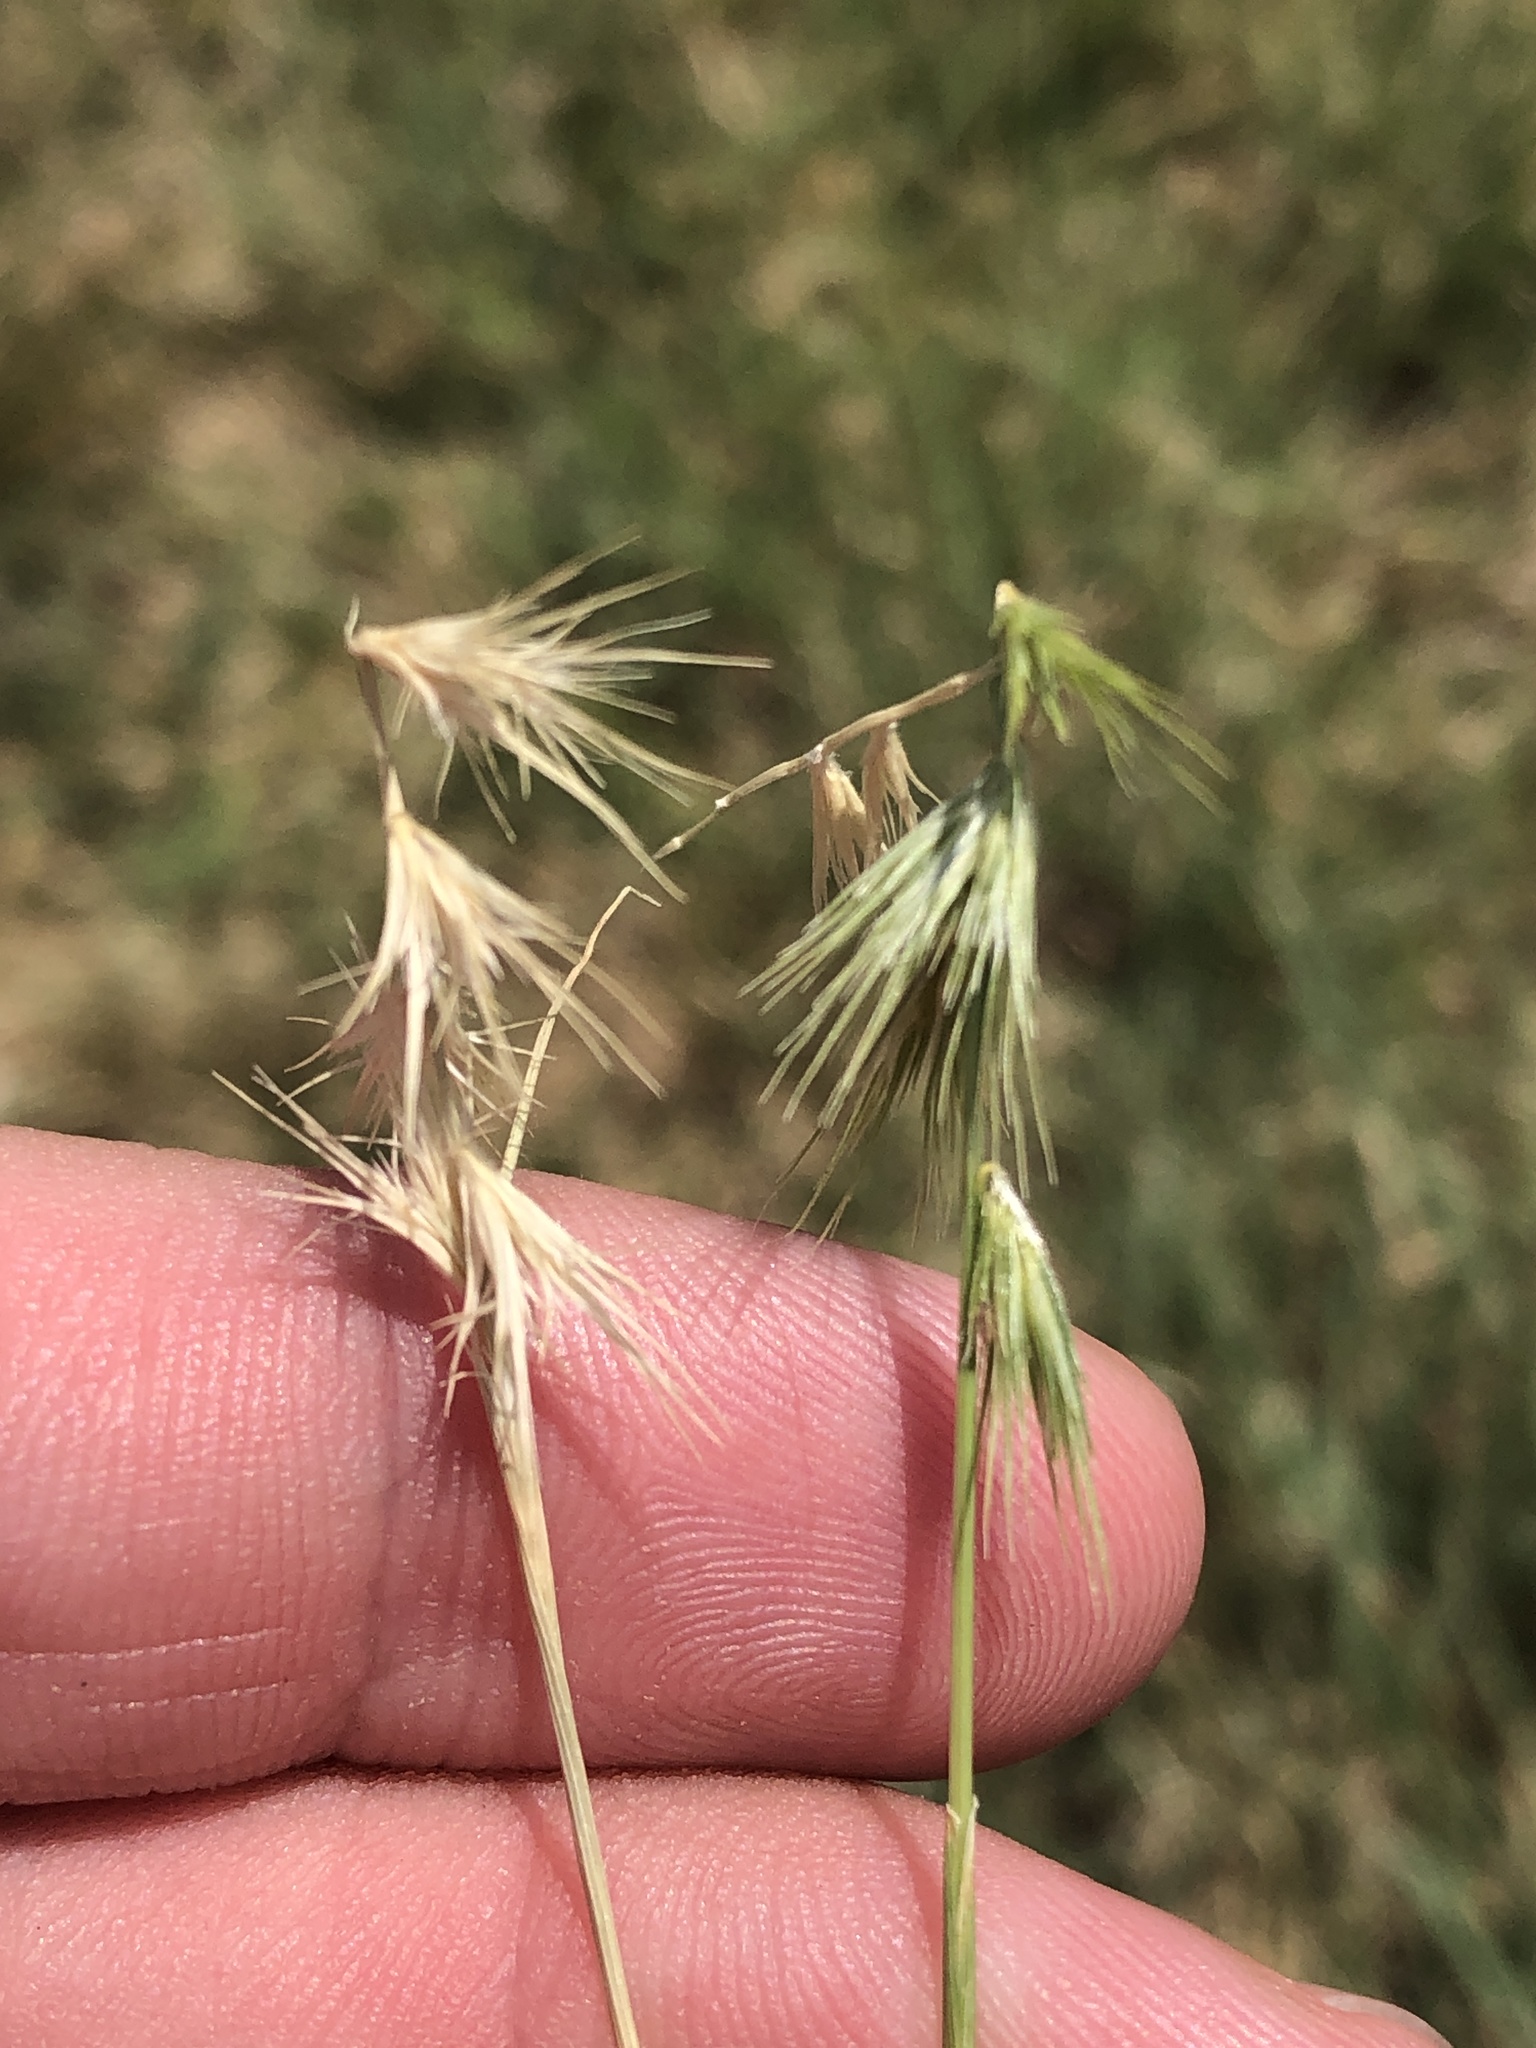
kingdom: Plantae
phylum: Tracheophyta
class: Liliopsida
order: Poales
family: Poaceae
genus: Bouteloua
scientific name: Bouteloua rigidiseta
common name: Texas grama
